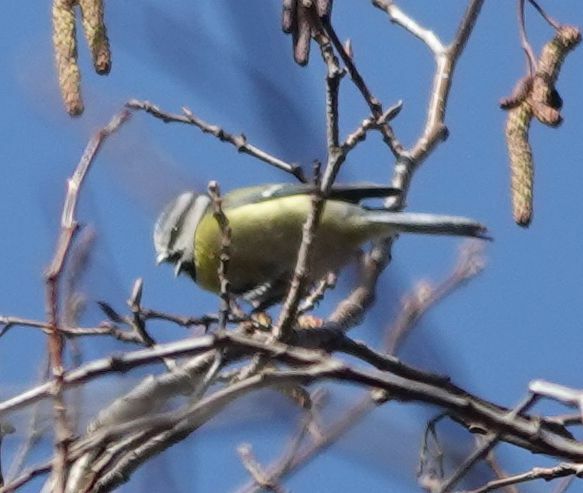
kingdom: Animalia
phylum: Chordata
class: Aves
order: Passeriformes
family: Paridae
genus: Cyanistes
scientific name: Cyanistes caeruleus
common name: Eurasian blue tit
